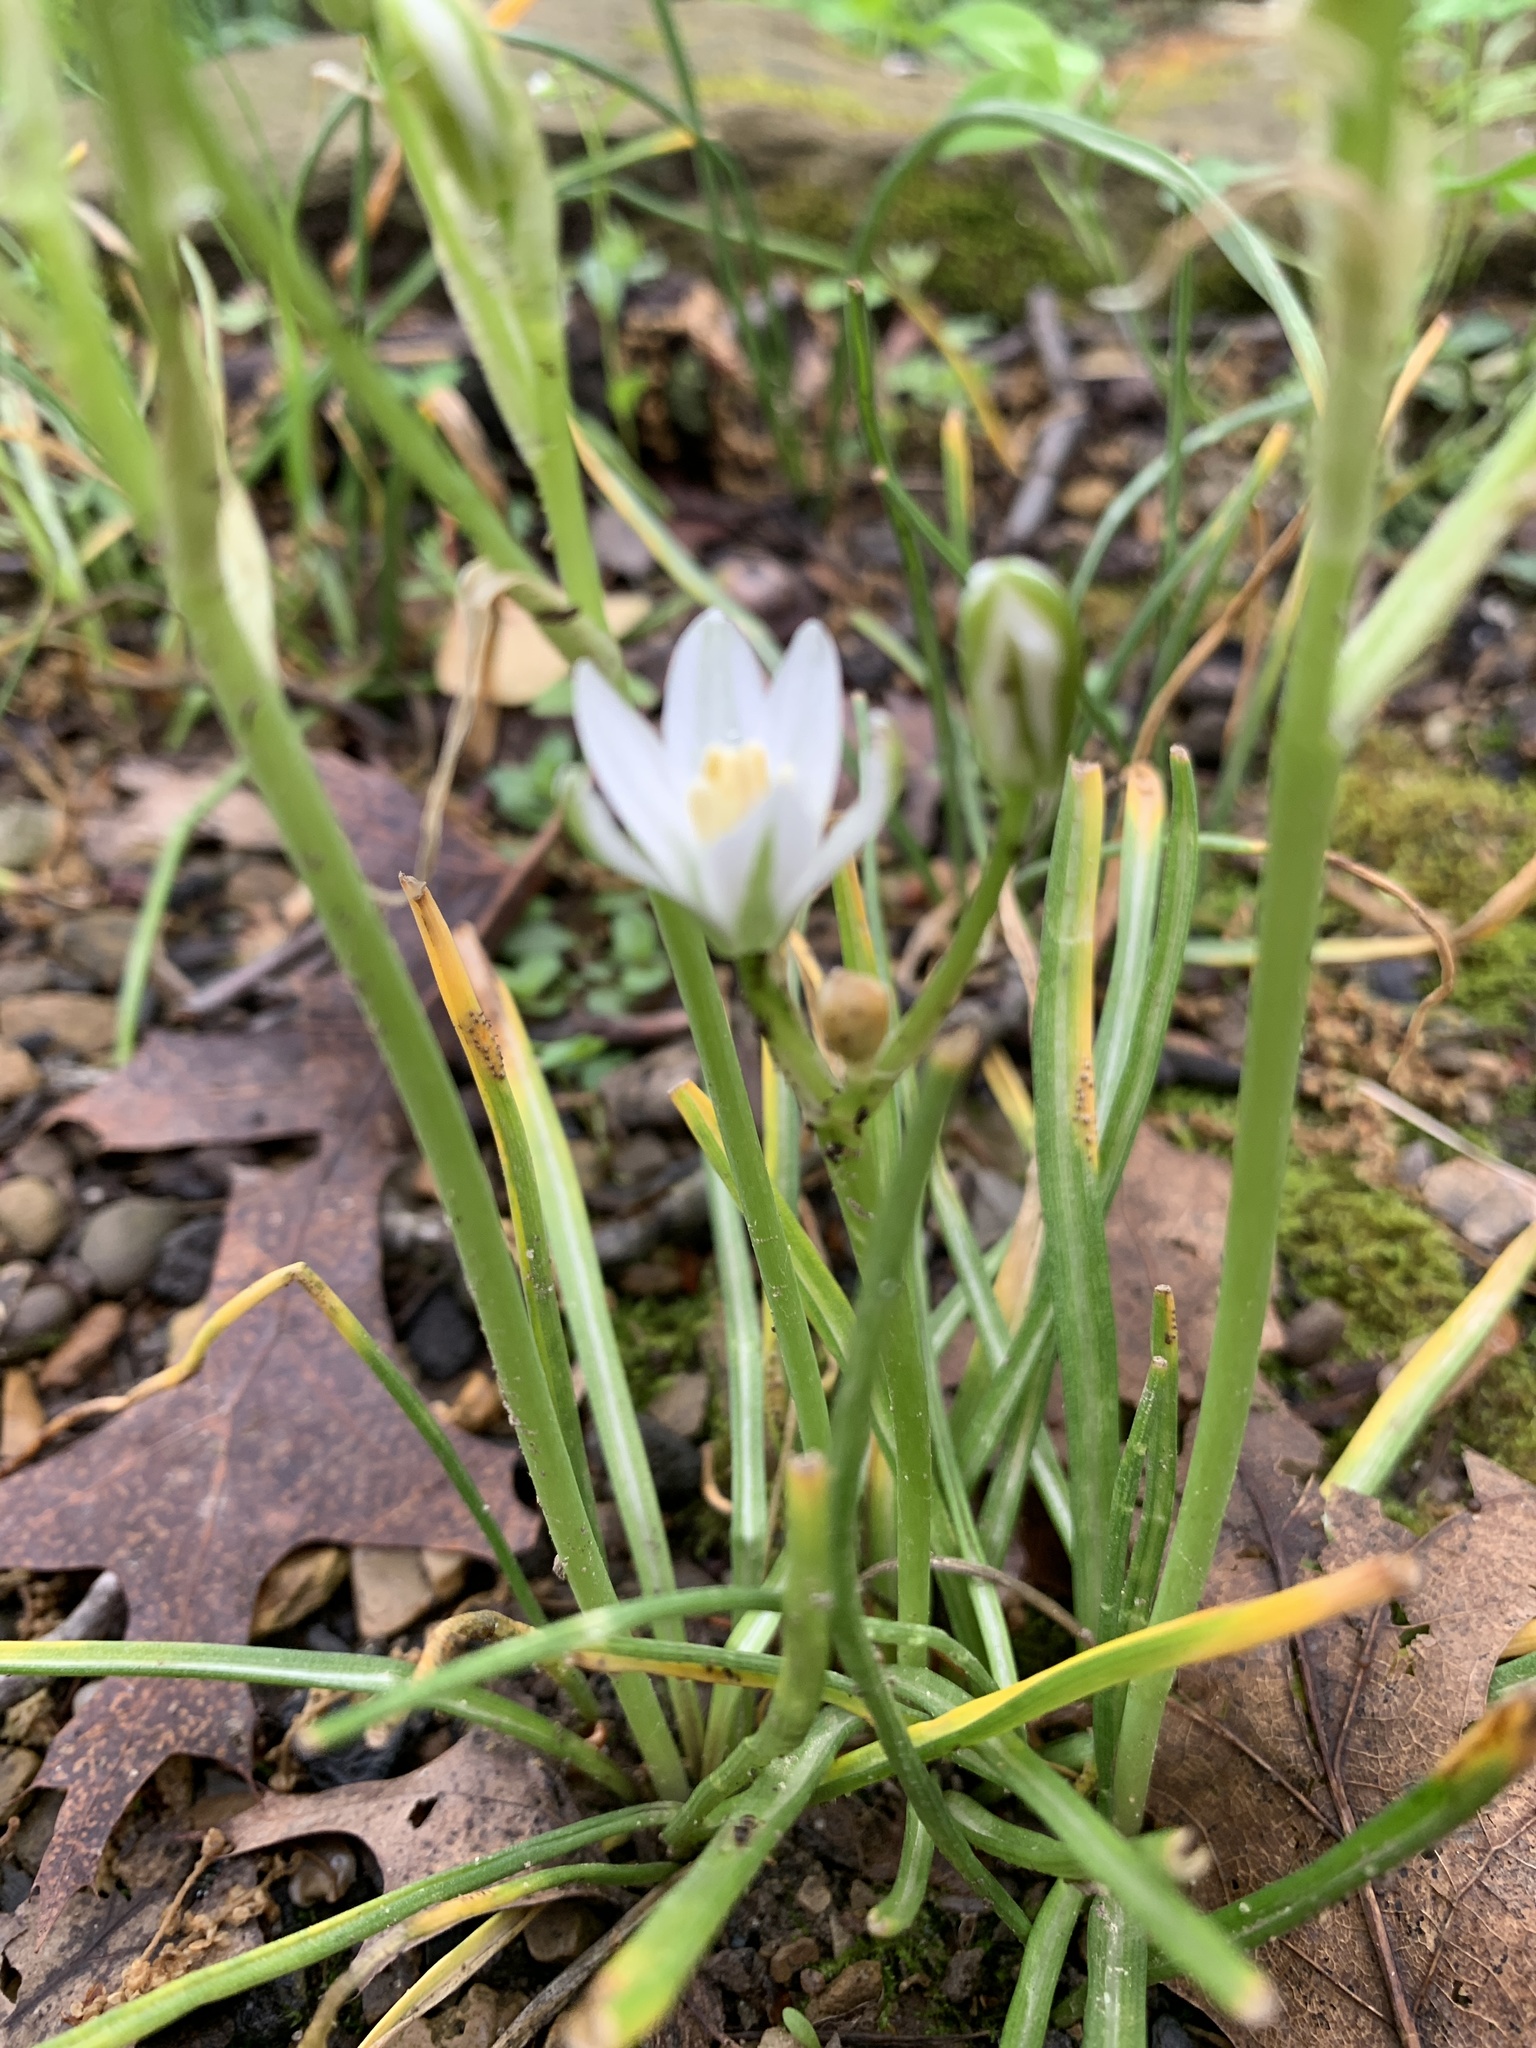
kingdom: Plantae
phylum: Tracheophyta
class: Liliopsida
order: Asparagales
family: Asparagaceae
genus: Ornithogalum
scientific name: Ornithogalum umbellatum
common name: Garden star-of-bethlehem
